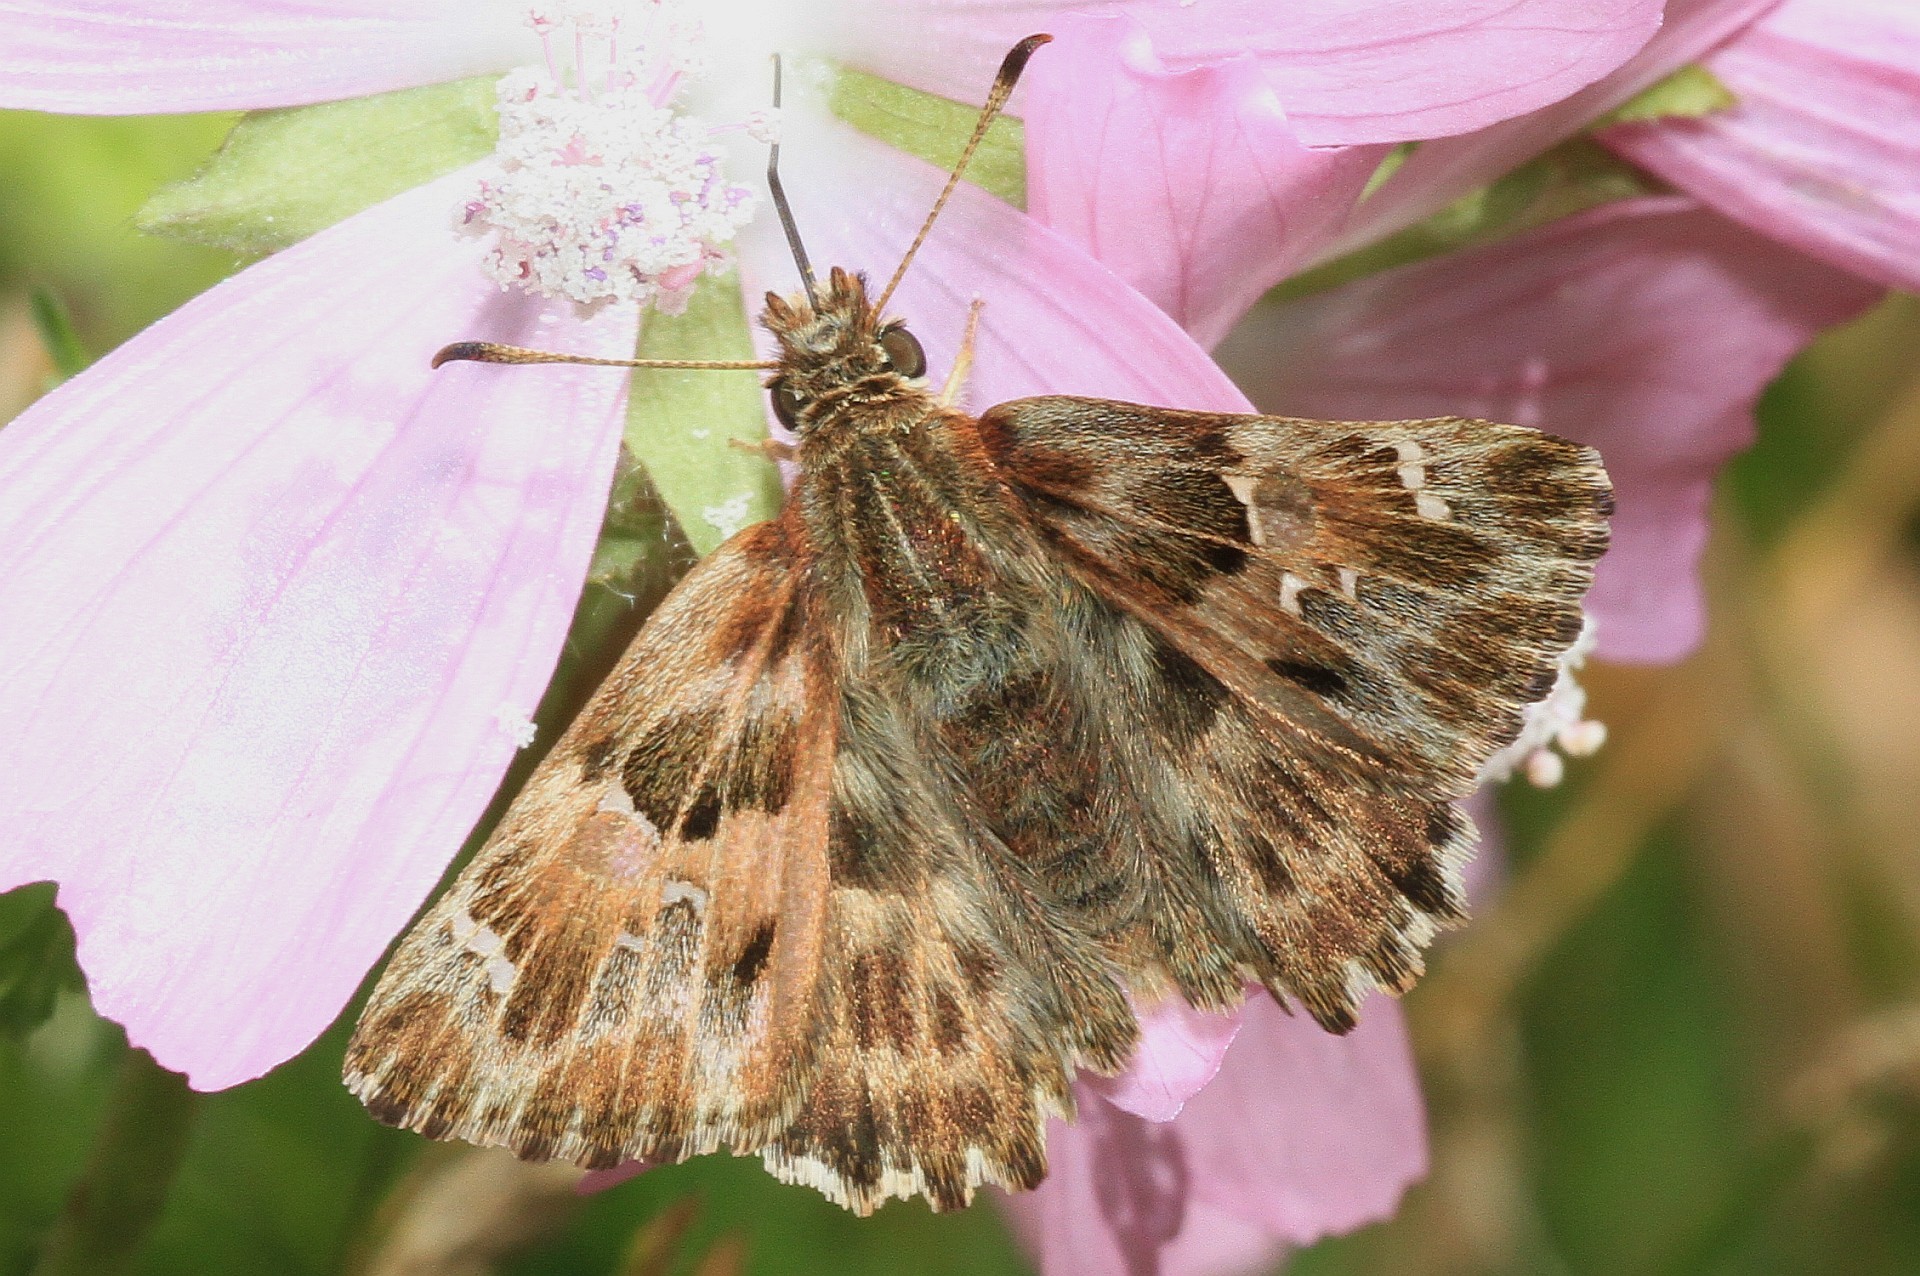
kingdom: Animalia
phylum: Arthropoda
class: Insecta
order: Lepidoptera
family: Hesperiidae
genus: Carcharodus
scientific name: Carcharodus alceae
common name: Mallow skipper
